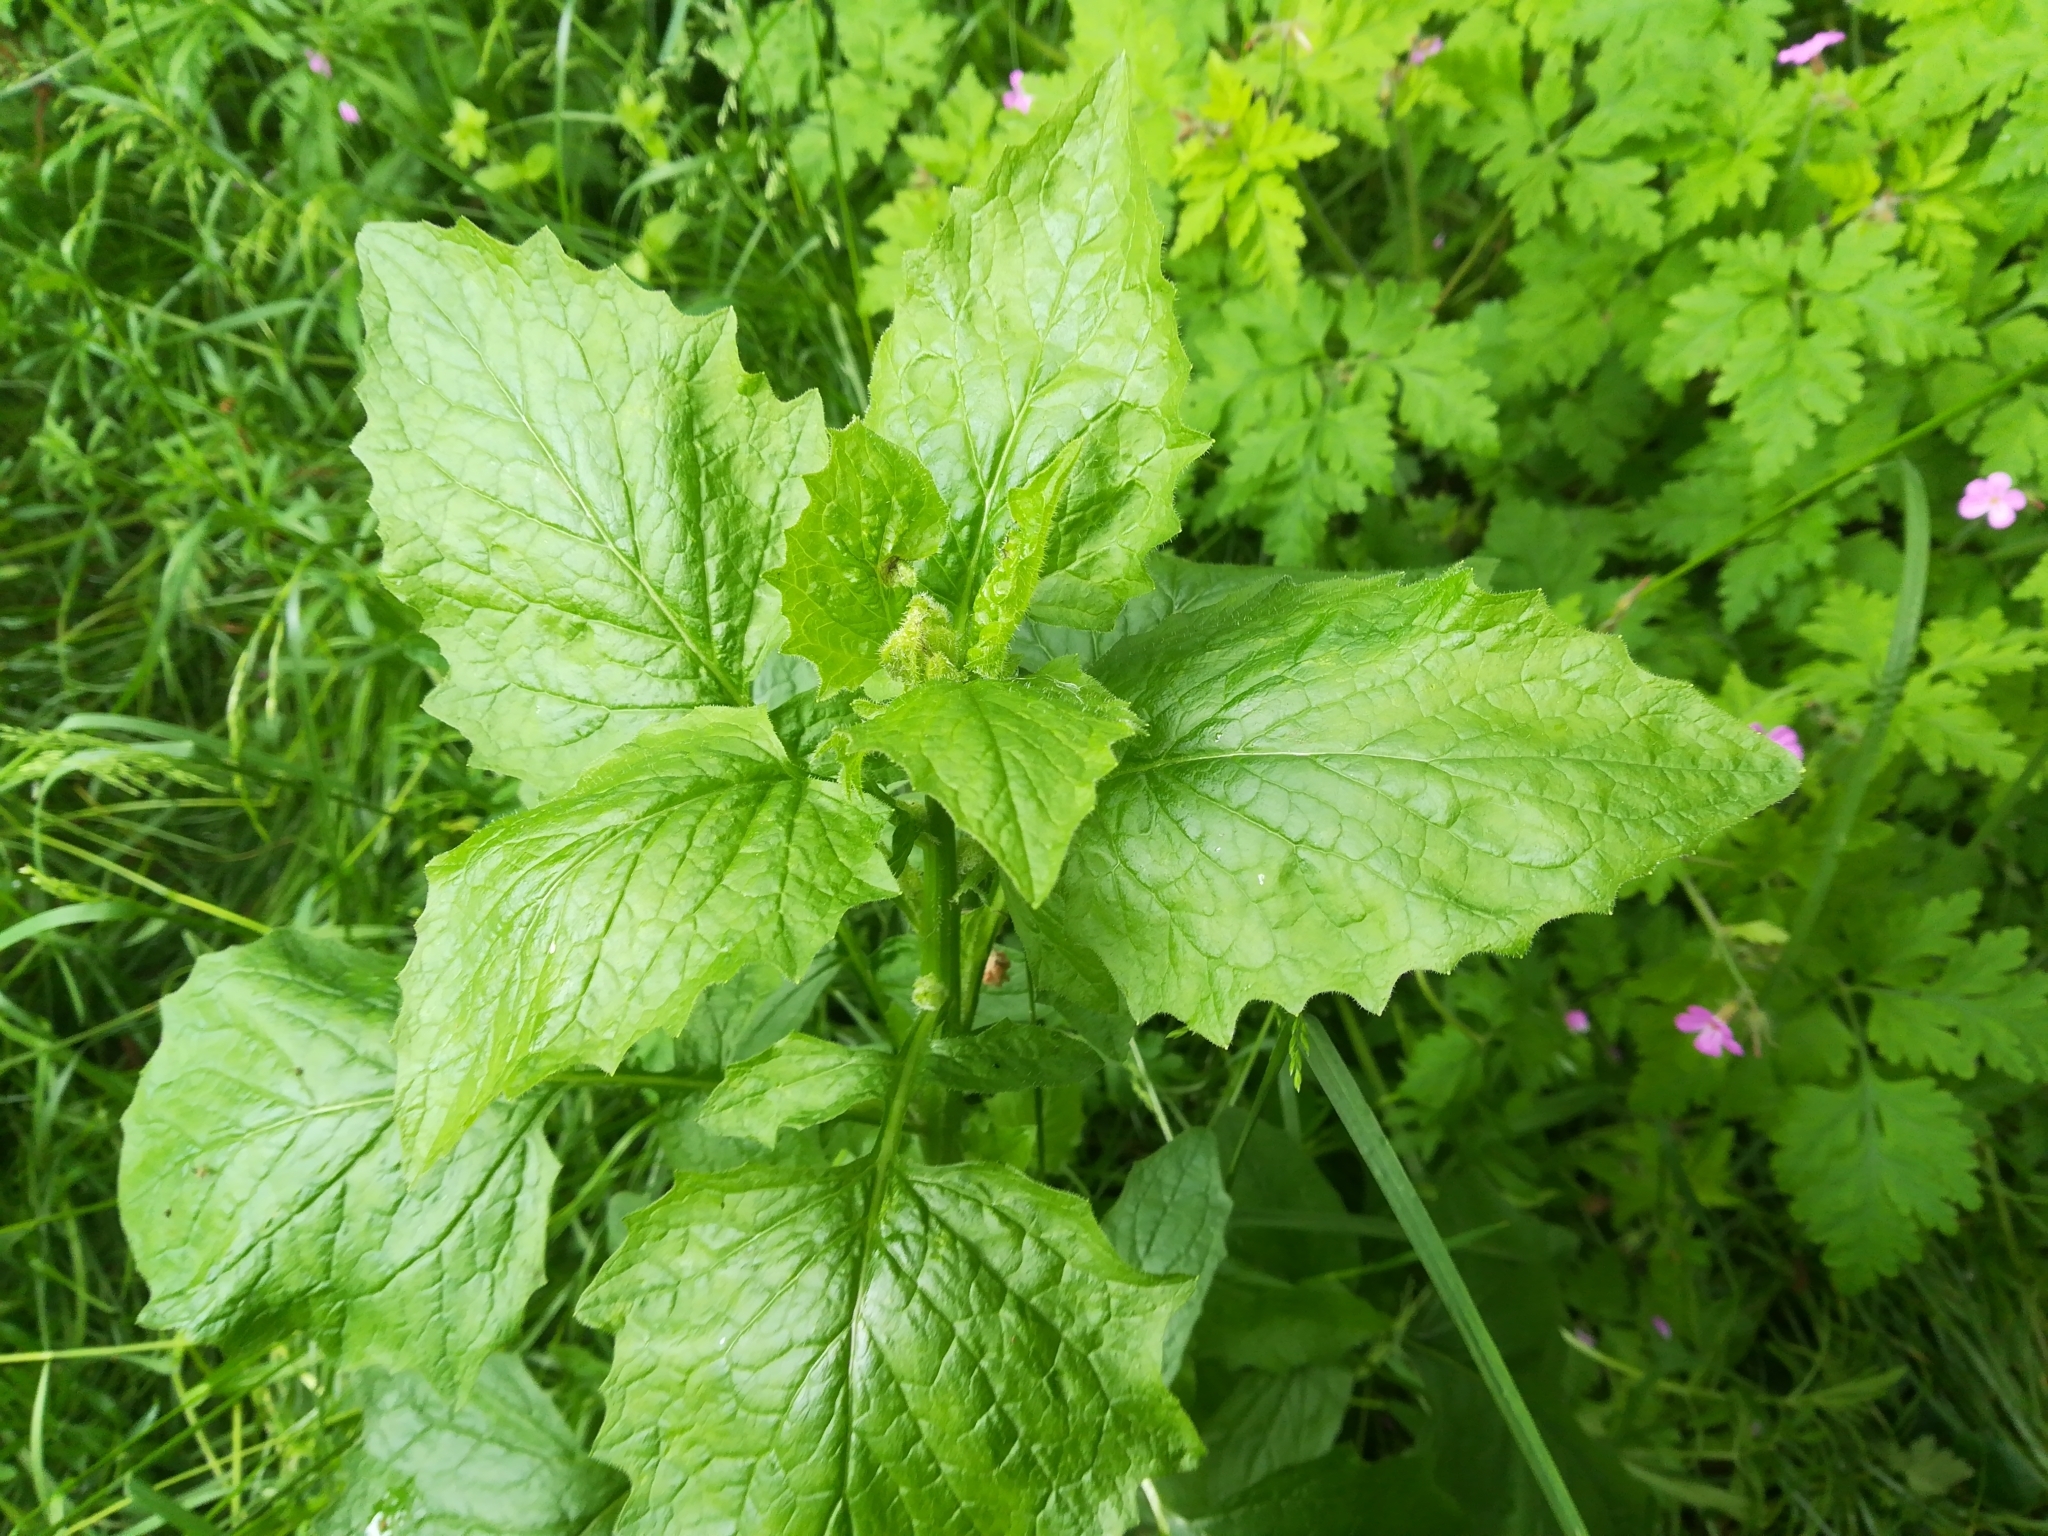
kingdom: Plantae
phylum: Tracheophyta
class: Magnoliopsida
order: Asterales
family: Asteraceae
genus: Lapsana
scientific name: Lapsana communis
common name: Nipplewort
